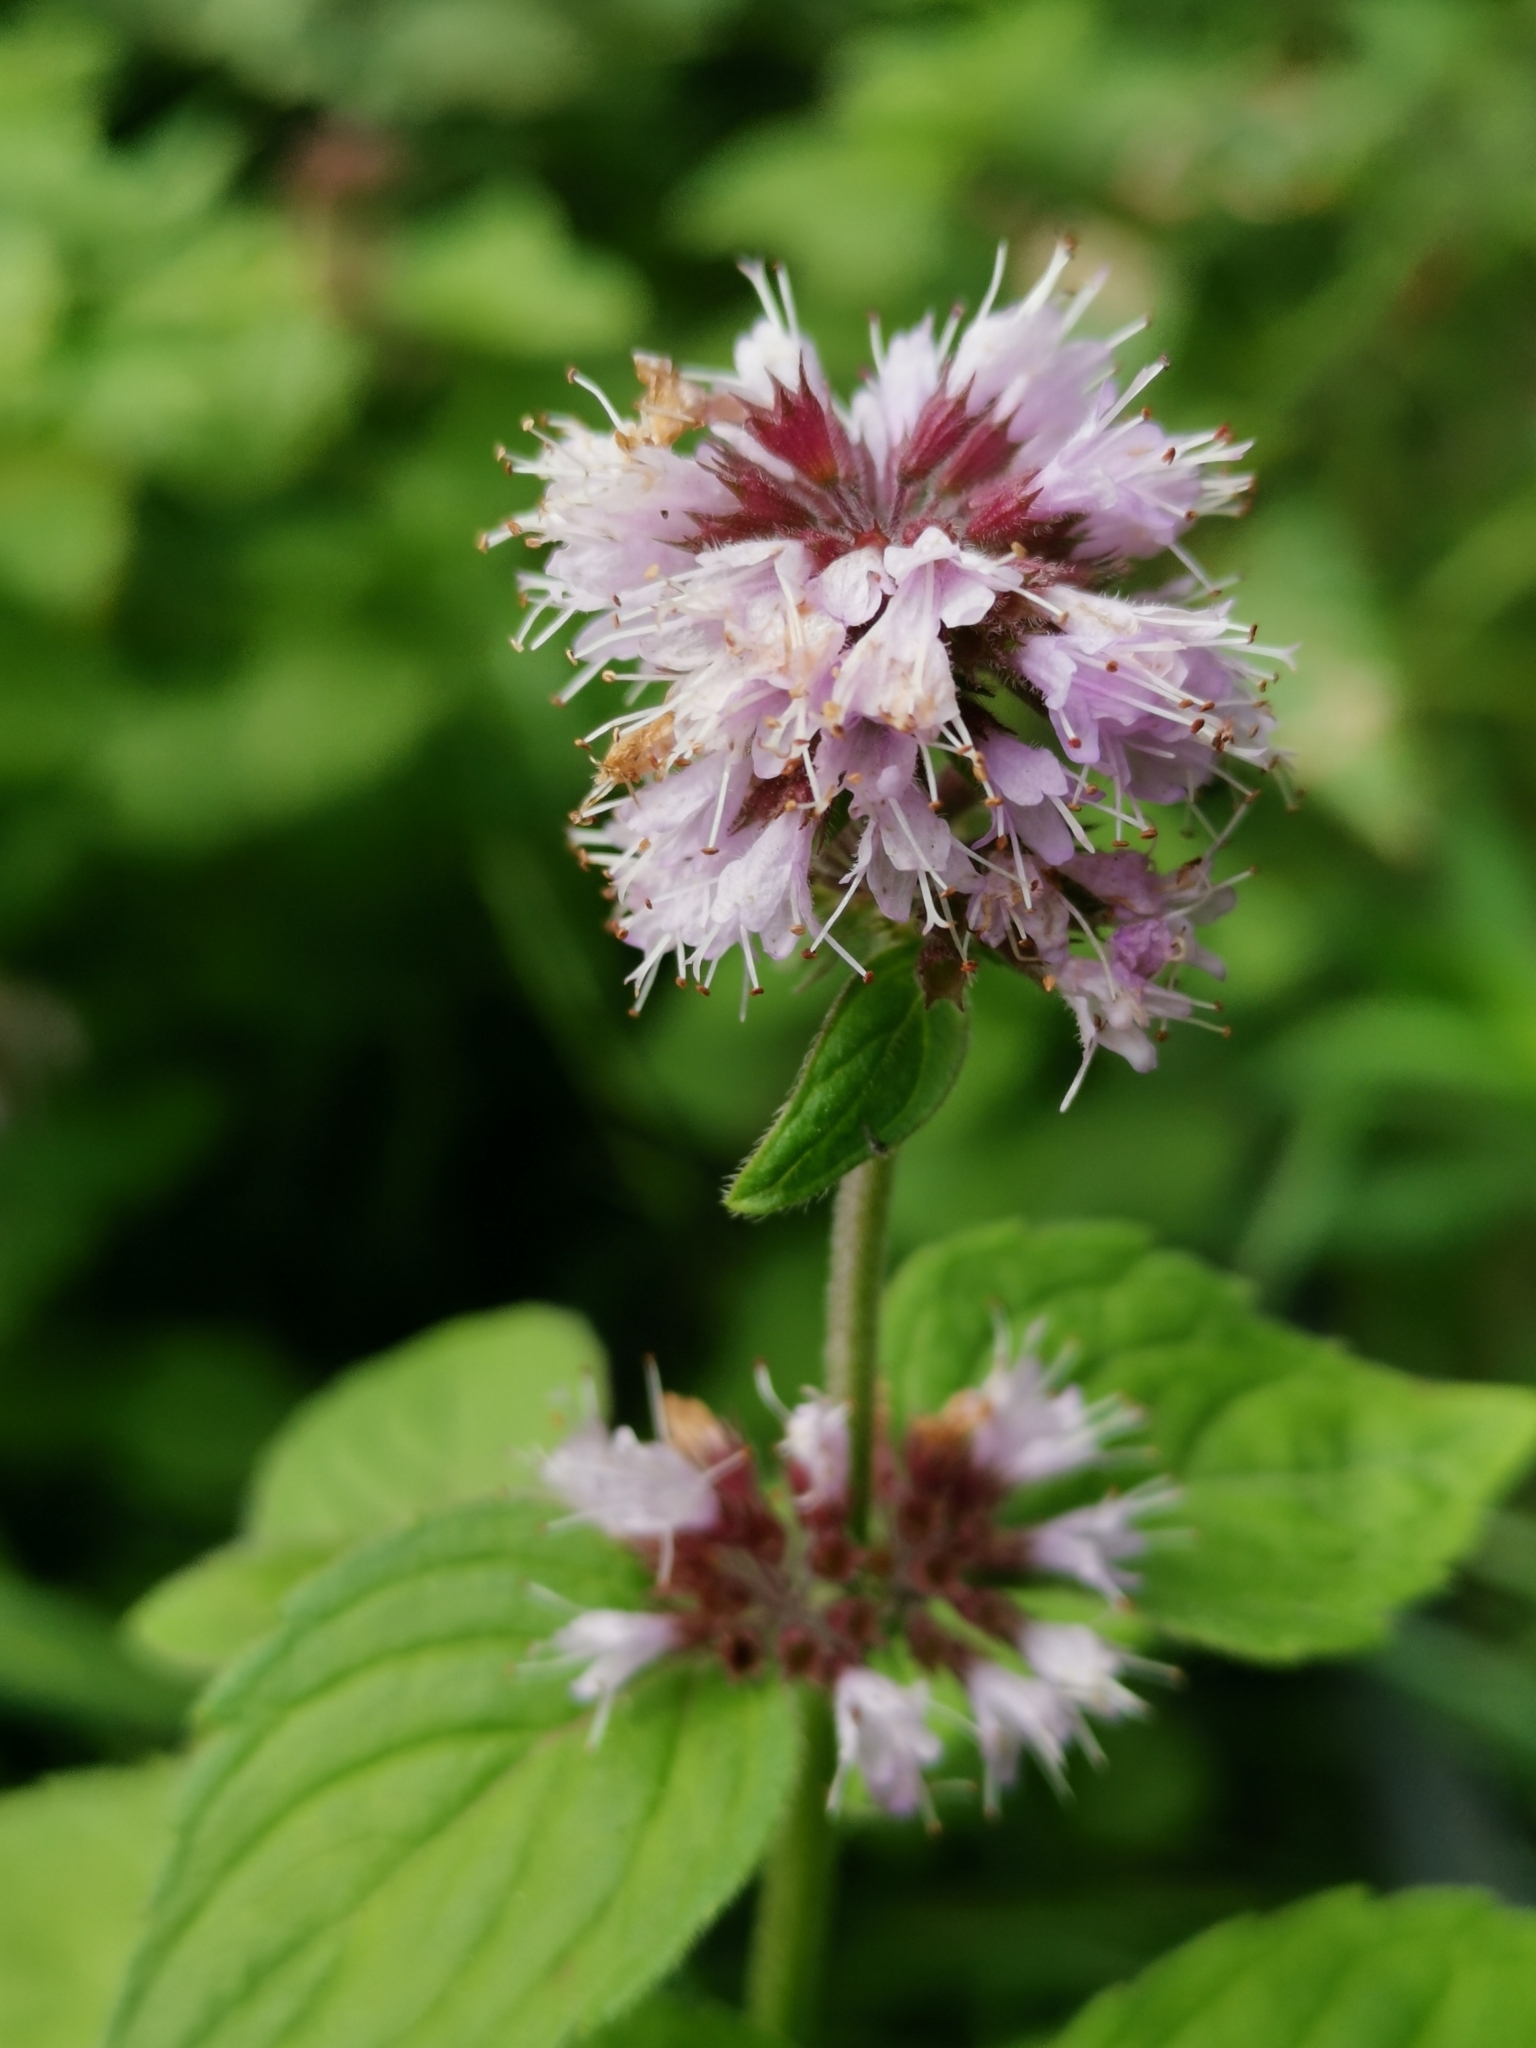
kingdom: Plantae
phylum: Tracheophyta
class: Magnoliopsida
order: Lamiales
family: Lamiaceae
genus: Mentha
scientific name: Mentha aquatica
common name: Water mint
